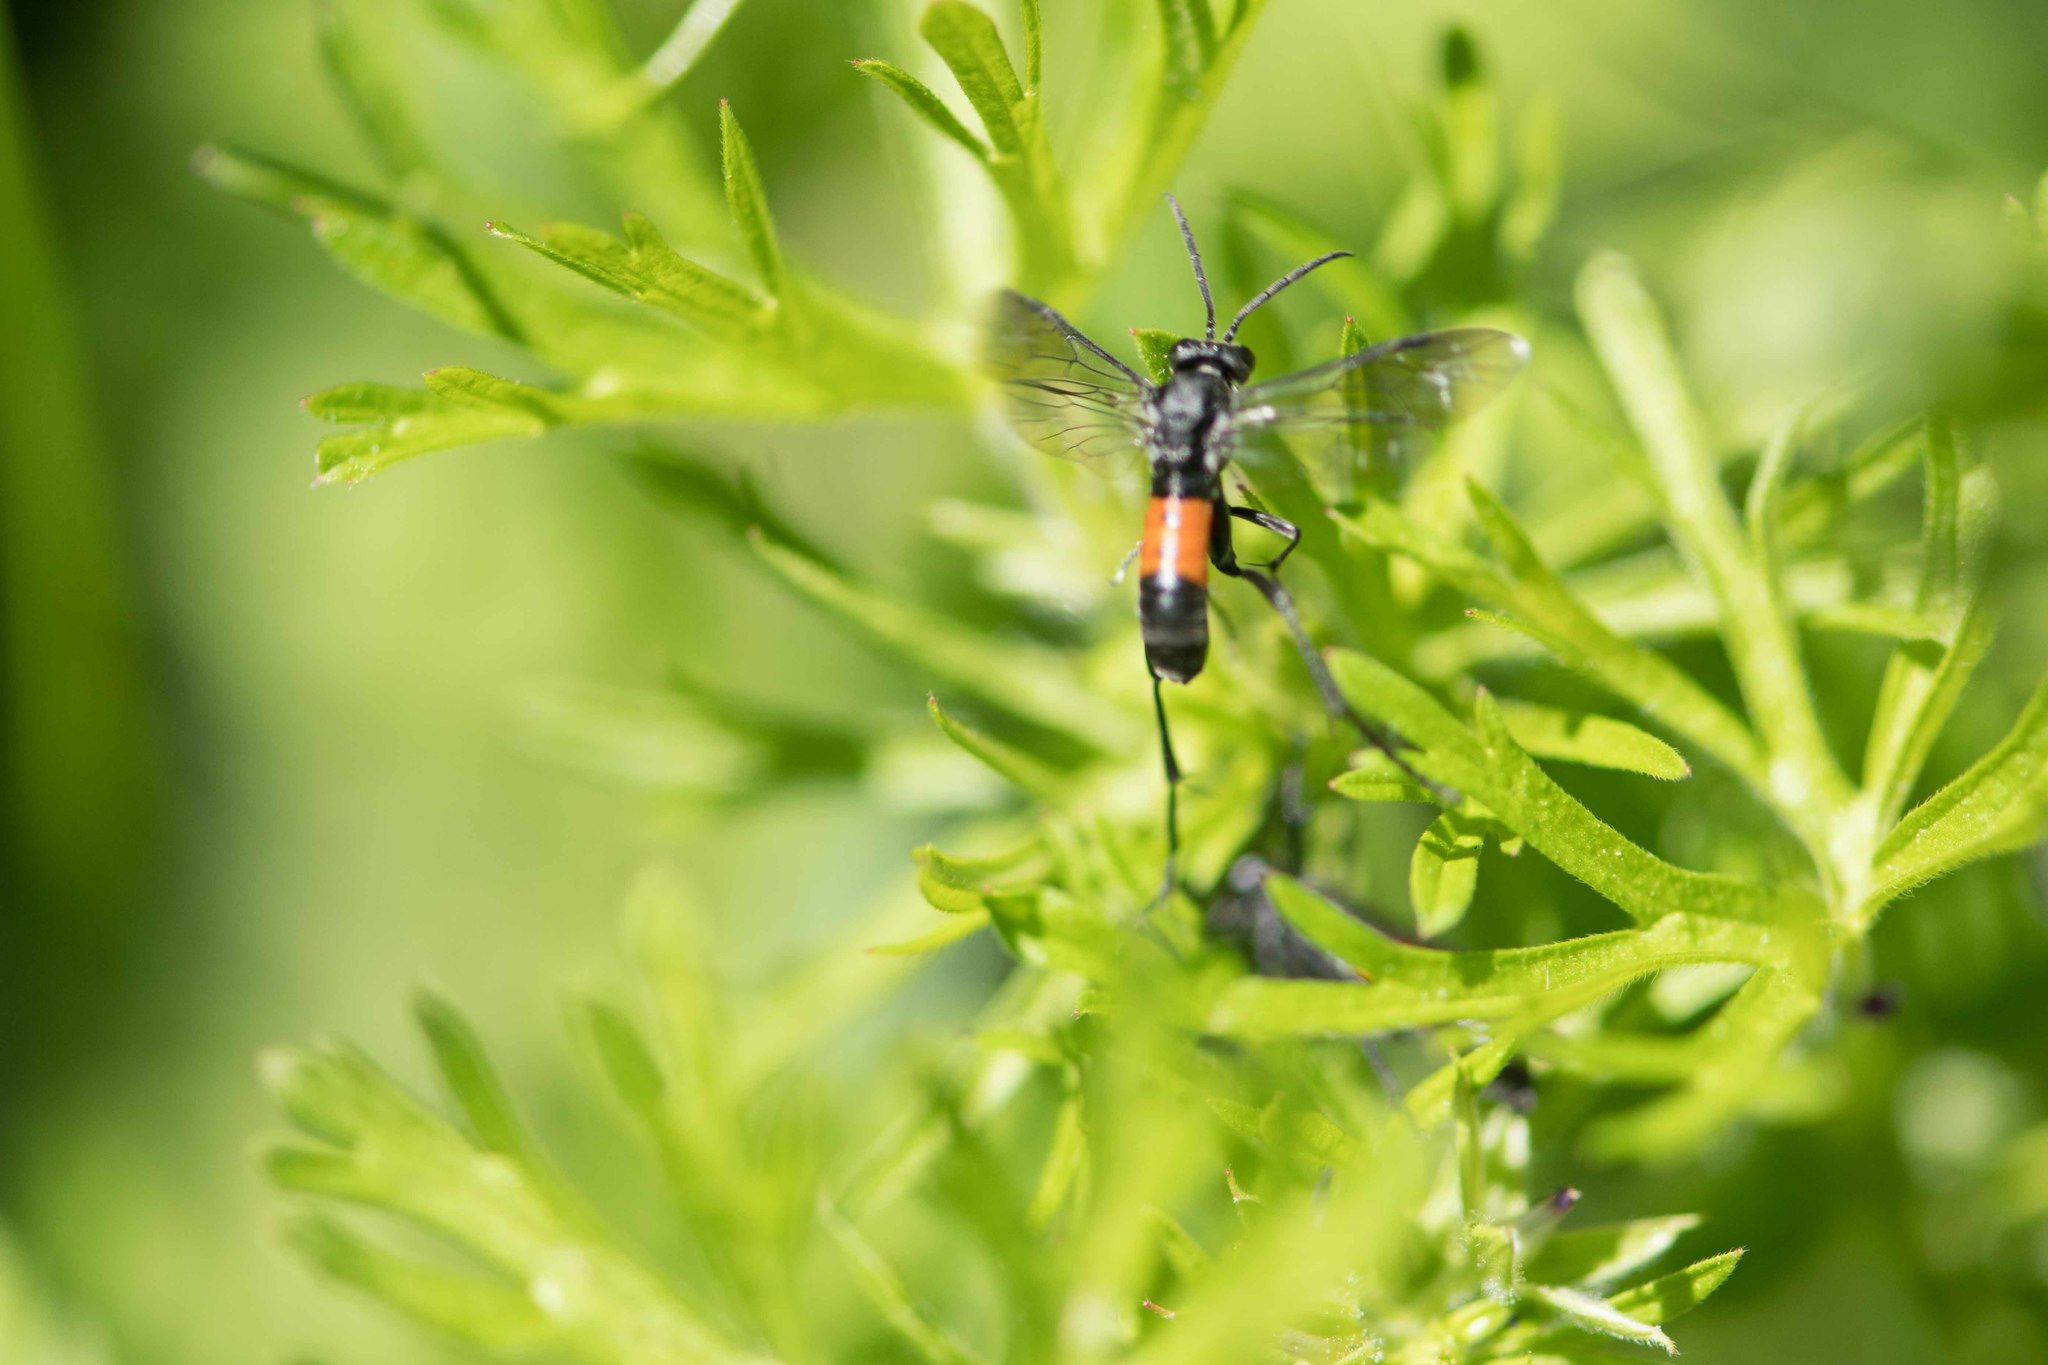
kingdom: Animalia
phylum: Arthropoda
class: Insecta
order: Hymenoptera
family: Tenthredinidae
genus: Macrophya
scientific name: Macrophya annulata
